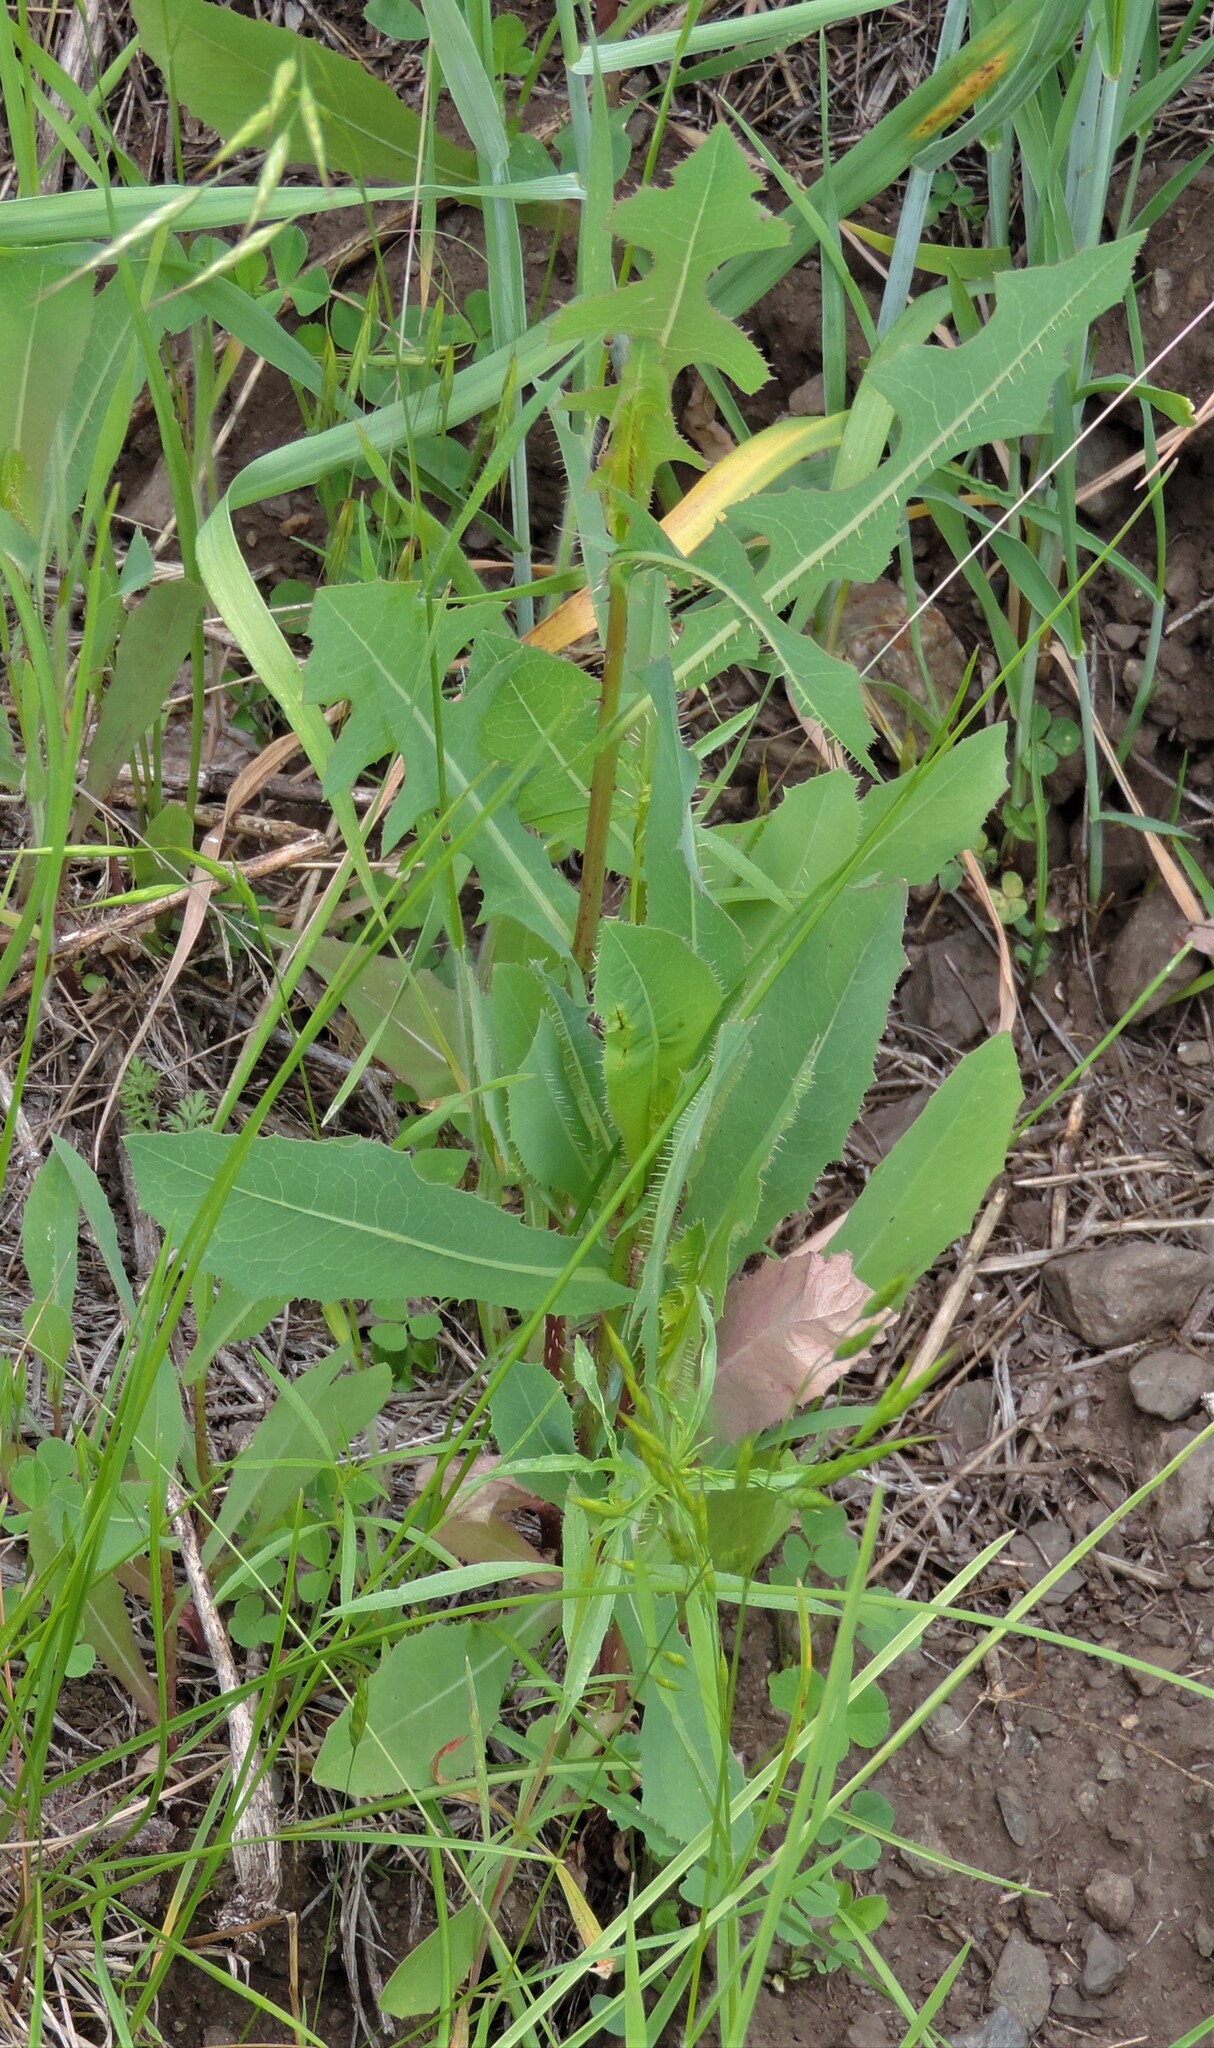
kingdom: Plantae
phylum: Tracheophyta
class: Magnoliopsida
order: Asterales
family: Asteraceae
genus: Lactuca
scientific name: Lactuca serriola
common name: Prickly lettuce
